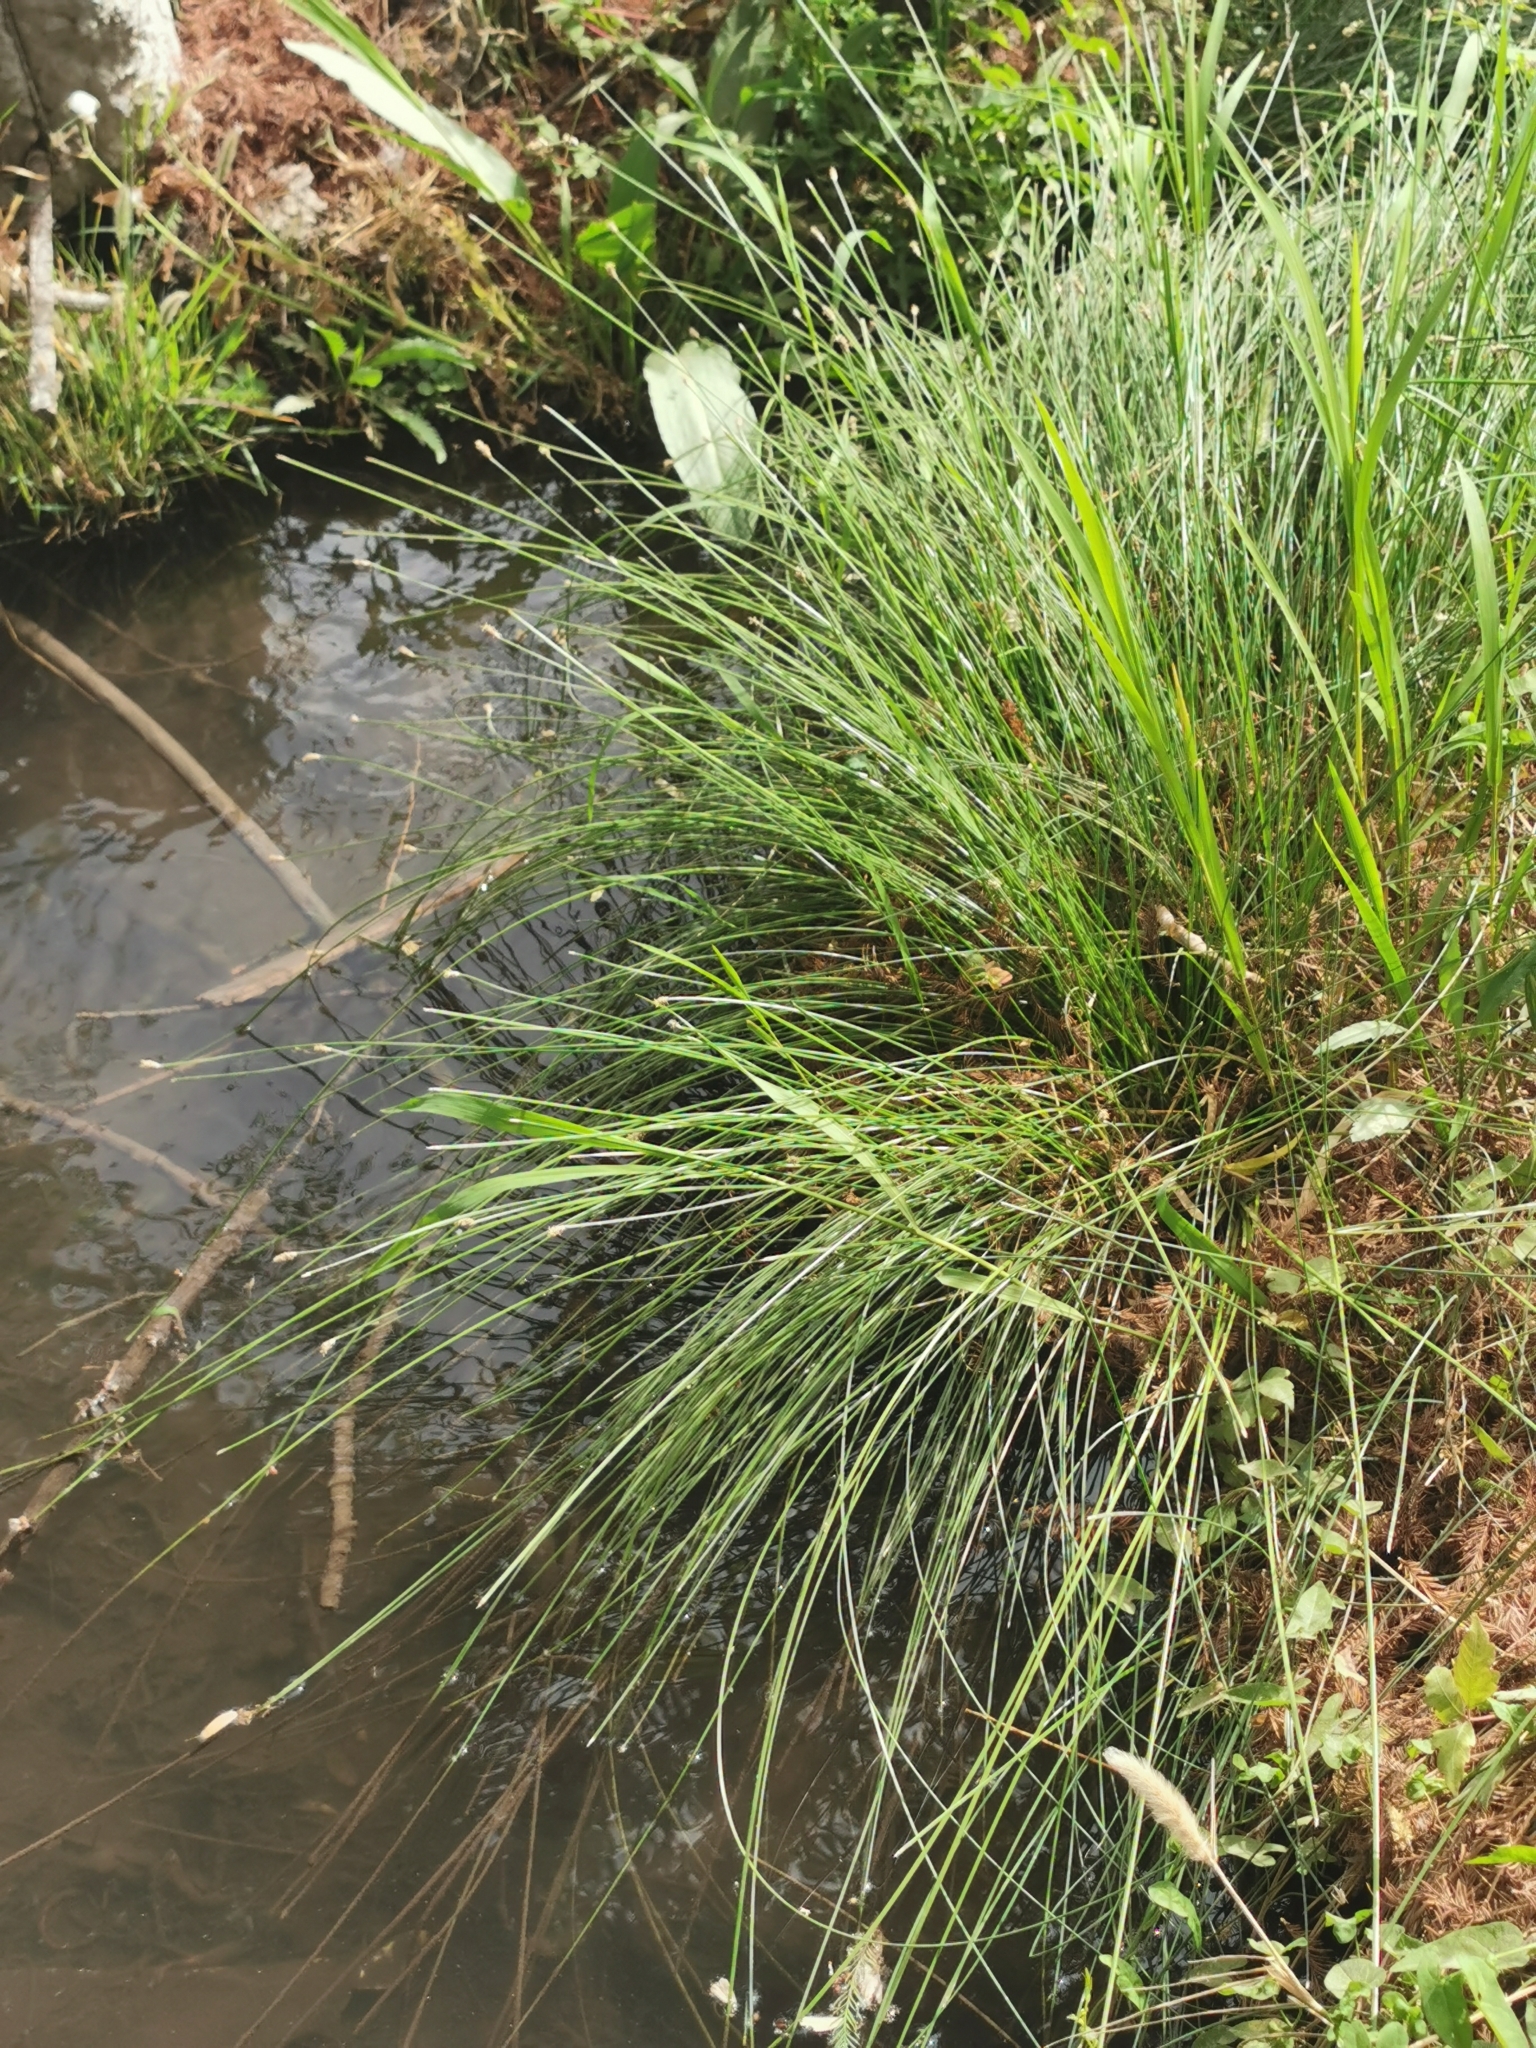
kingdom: Plantae
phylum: Tracheophyta
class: Liliopsida
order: Poales
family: Cyperaceae
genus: Eleocharis
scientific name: Eleocharis macrostachya
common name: Pale spikerush
